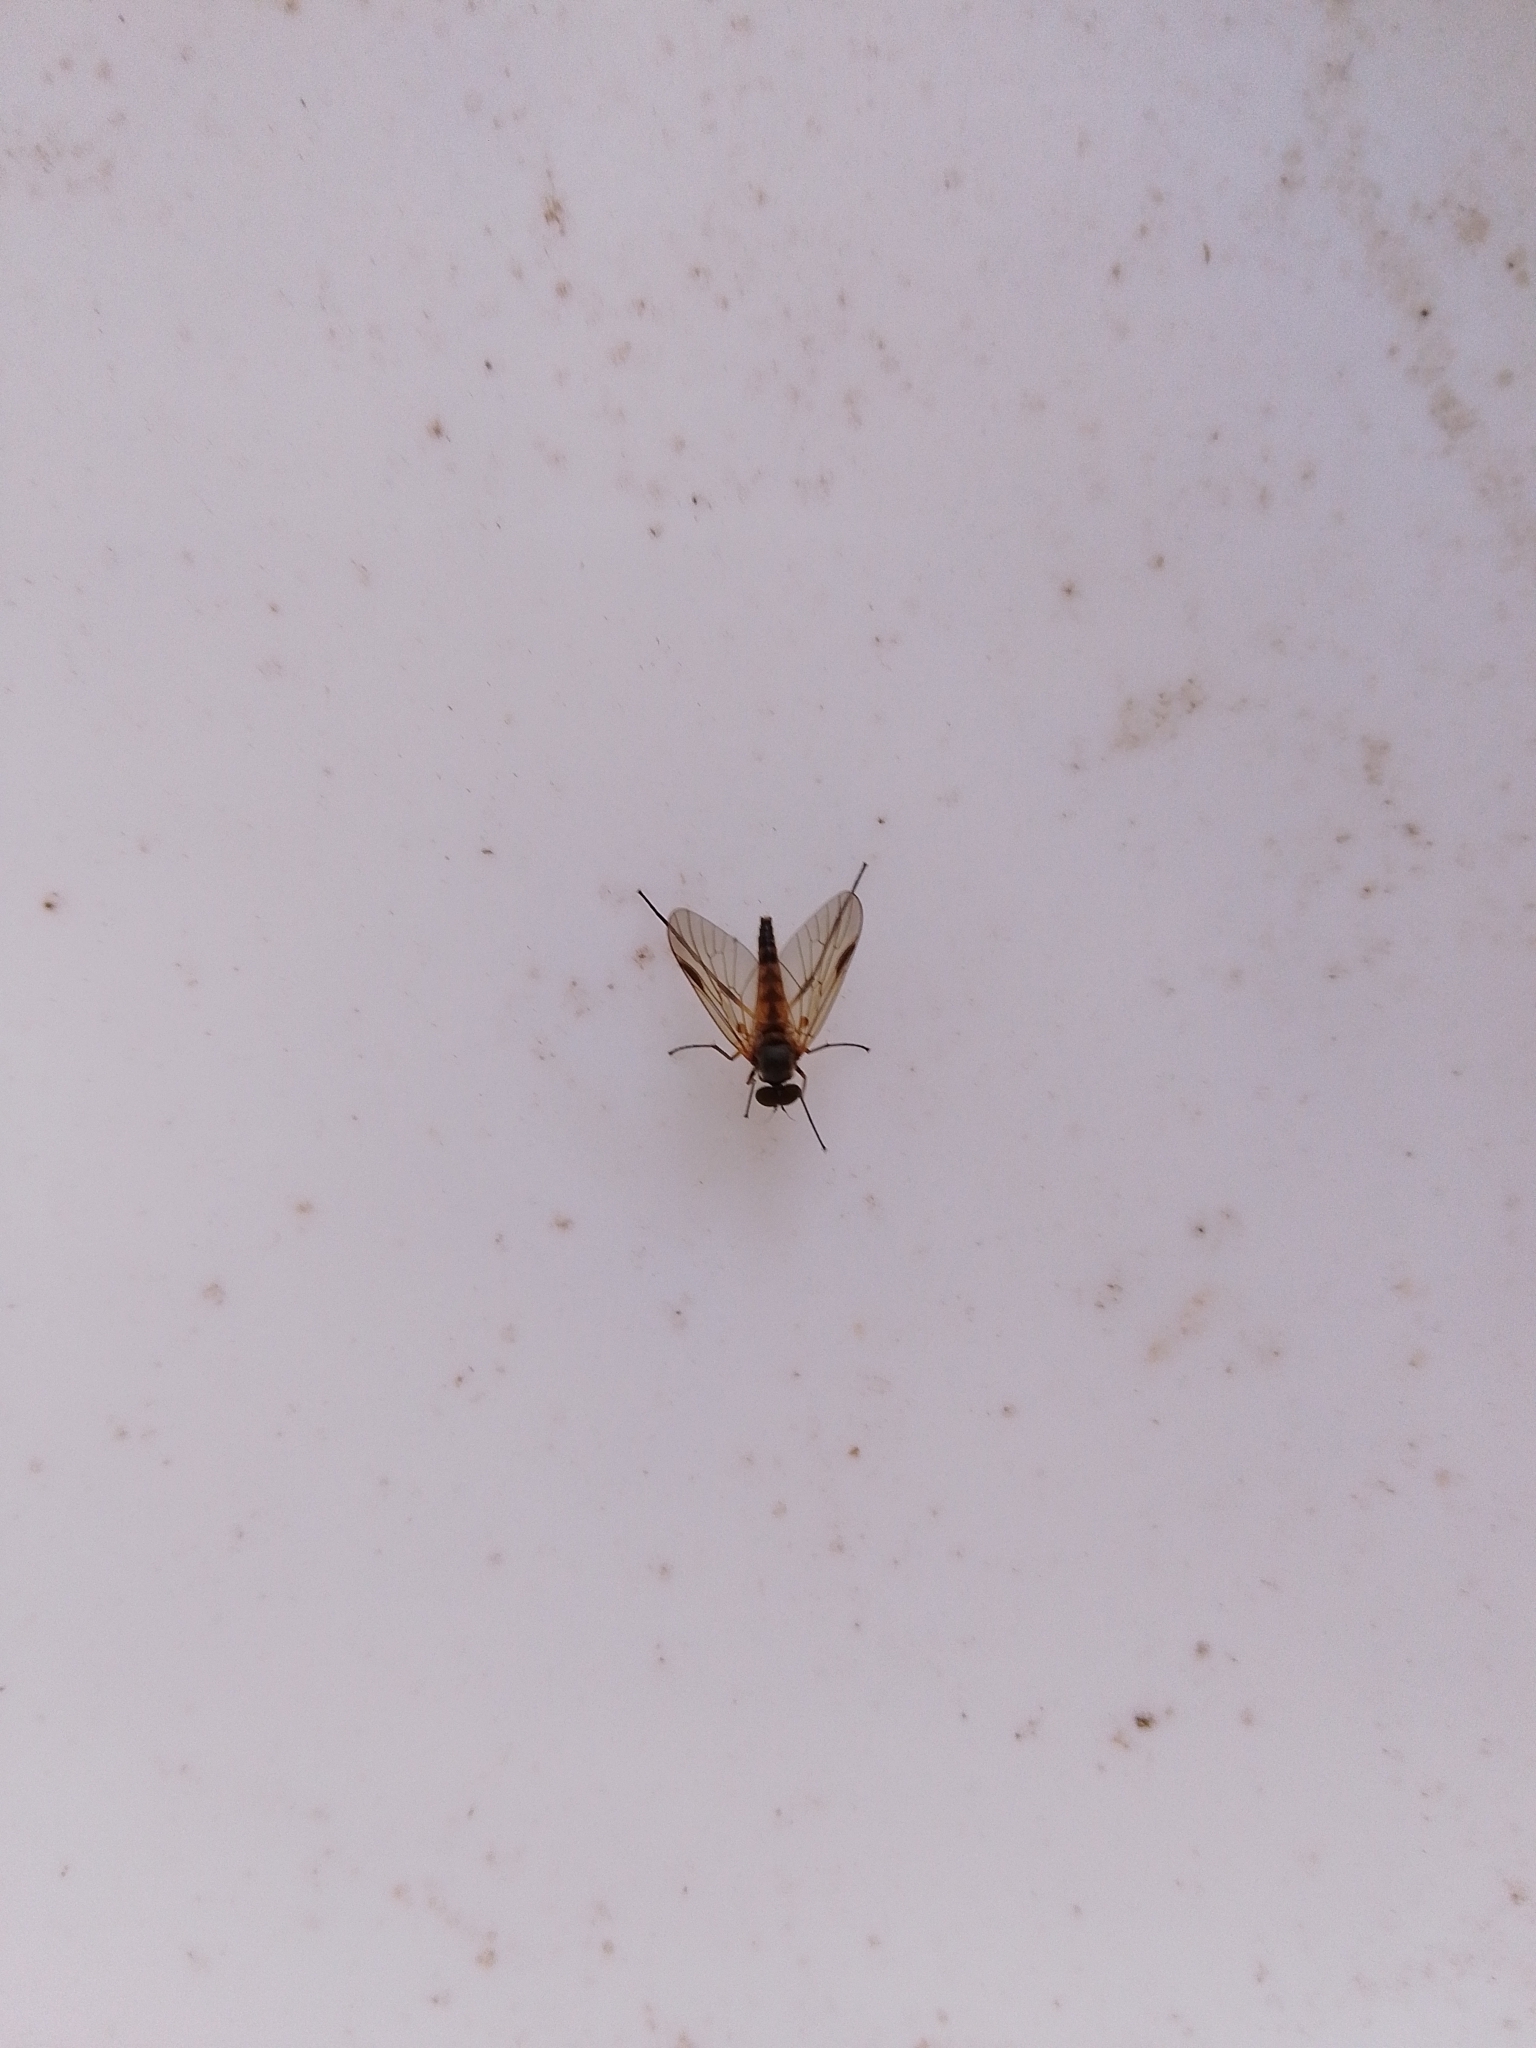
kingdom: Animalia
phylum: Arthropoda
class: Insecta
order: Diptera
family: Rhagionidae
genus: Rhagio
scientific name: Rhagio lineola
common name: Small fleck-winged snipefly
